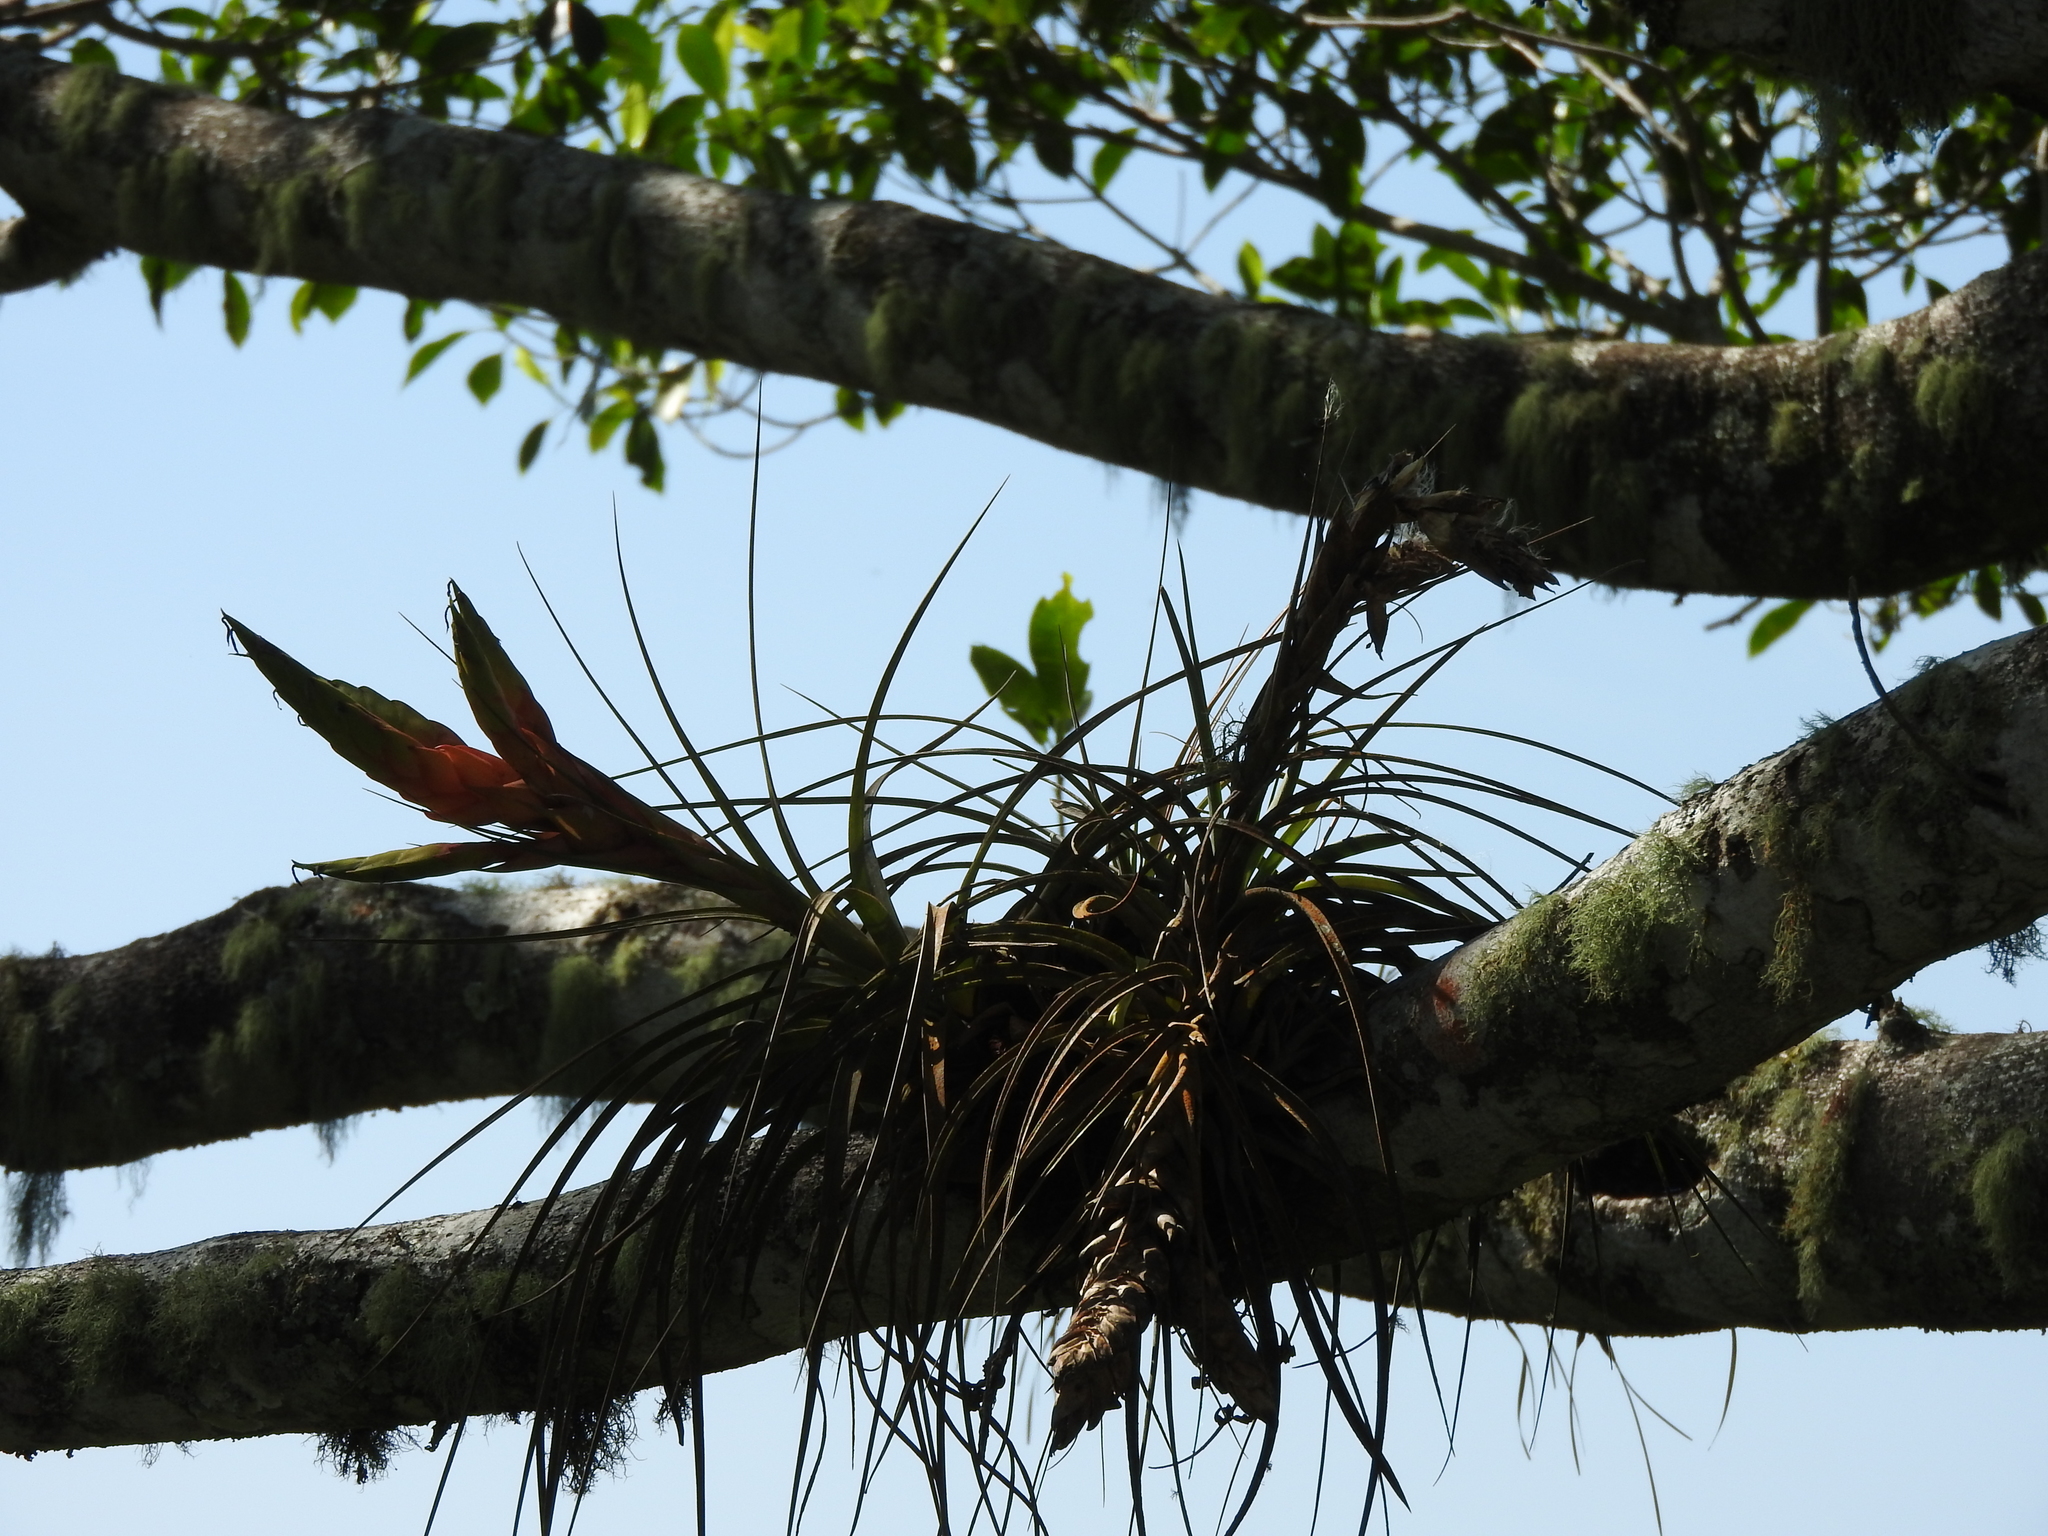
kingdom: Plantae
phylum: Tracheophyta
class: Liliopsida
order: Poales
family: Bromeliaceae
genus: Tillandsia
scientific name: Tillandsia fasciculata
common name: Giant airplant
